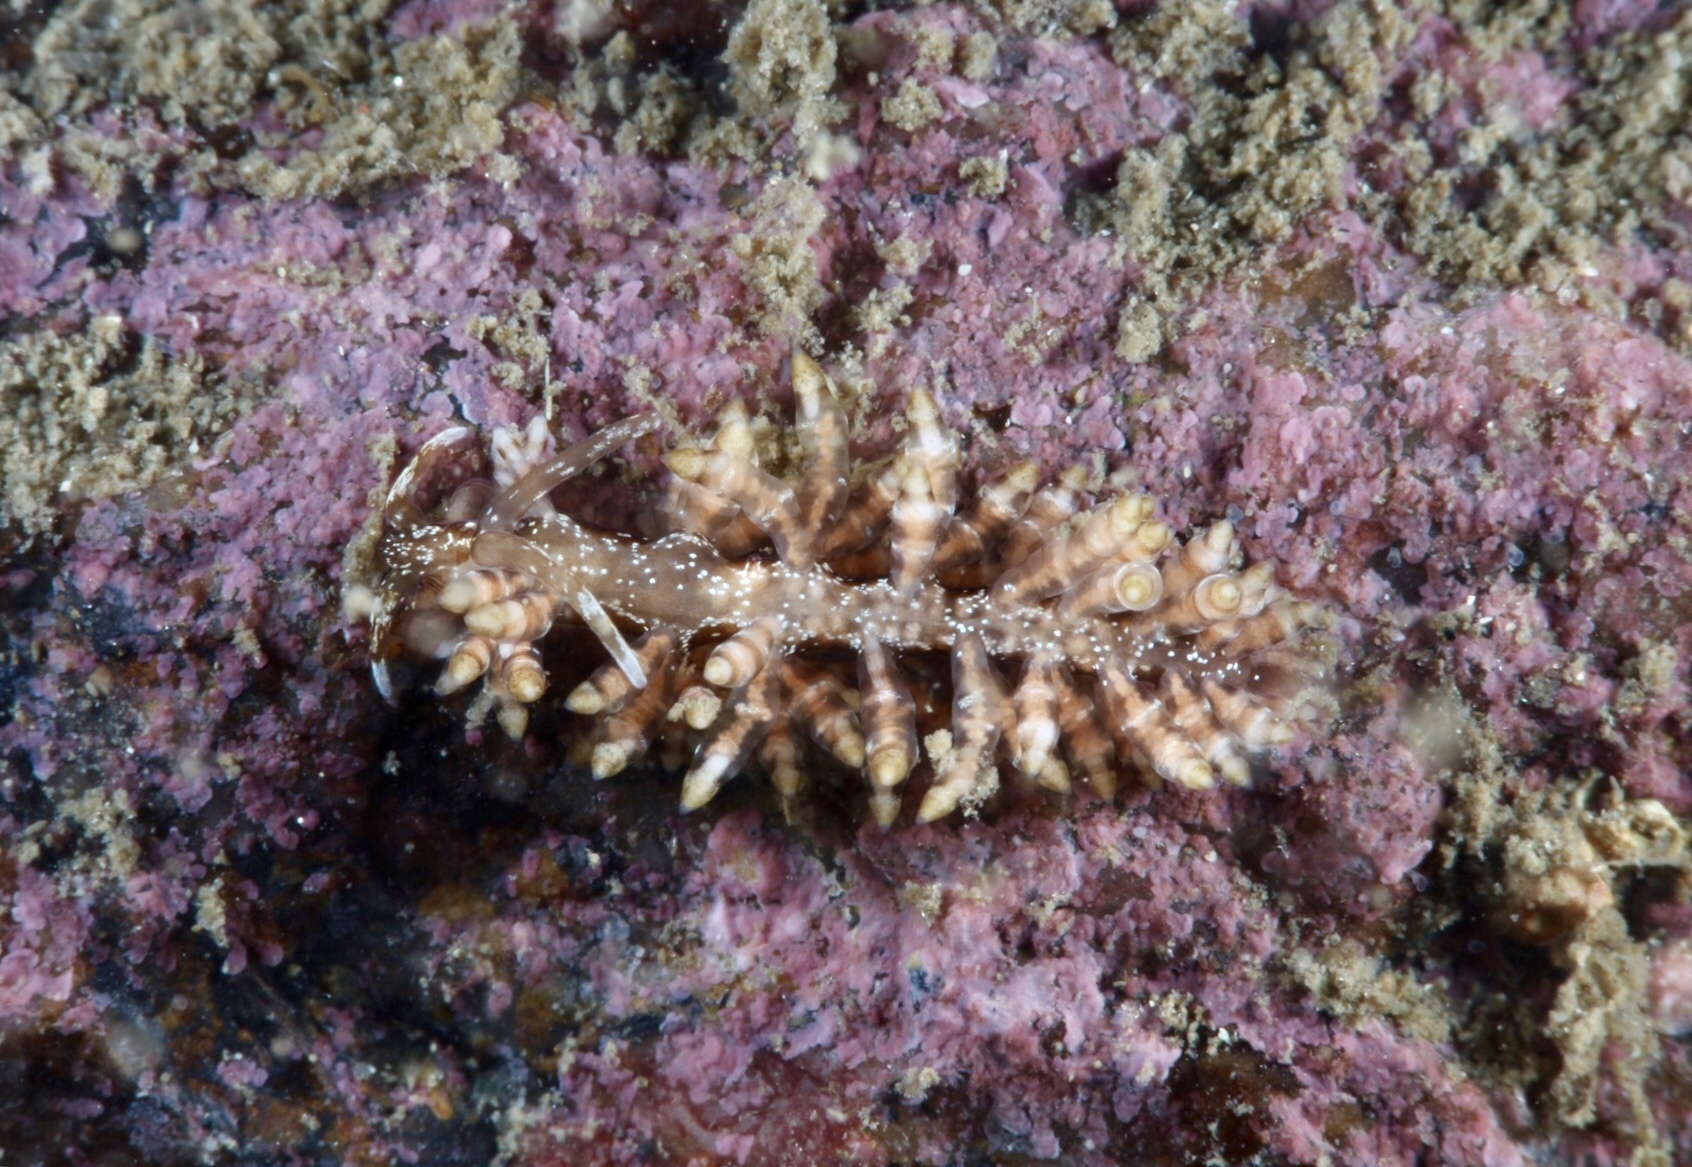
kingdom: Animalia
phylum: Mollusca
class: Gastropoda
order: Nudibranchia
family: Eubranchidae
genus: Eubranchus
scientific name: Eubranchus vittatus
